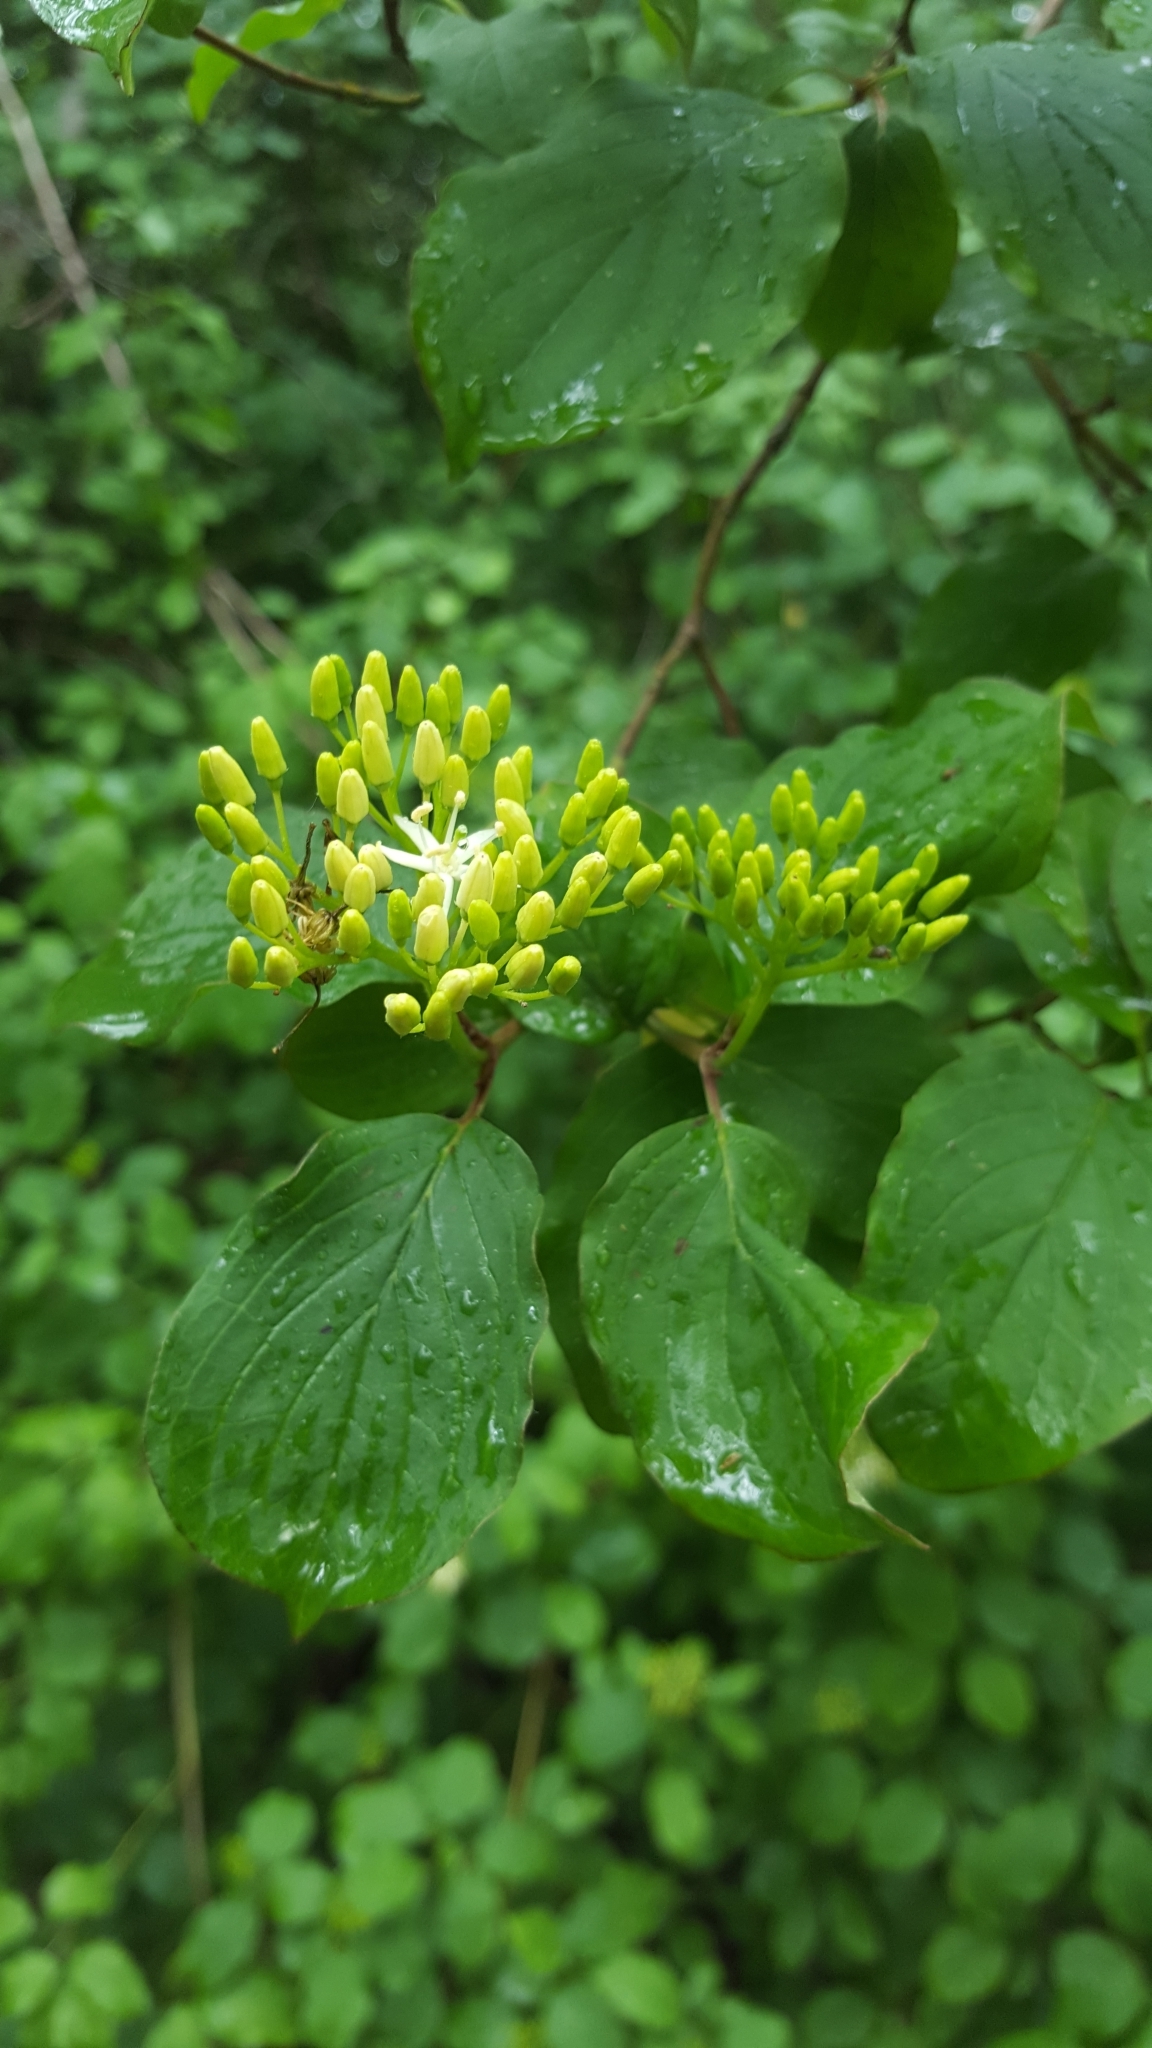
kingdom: Plantae
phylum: Tracheophyta
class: Magnoliopsida
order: Cornales
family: Cornaceae
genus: Cornus
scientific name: Cornus sanguinea
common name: Dogwood
